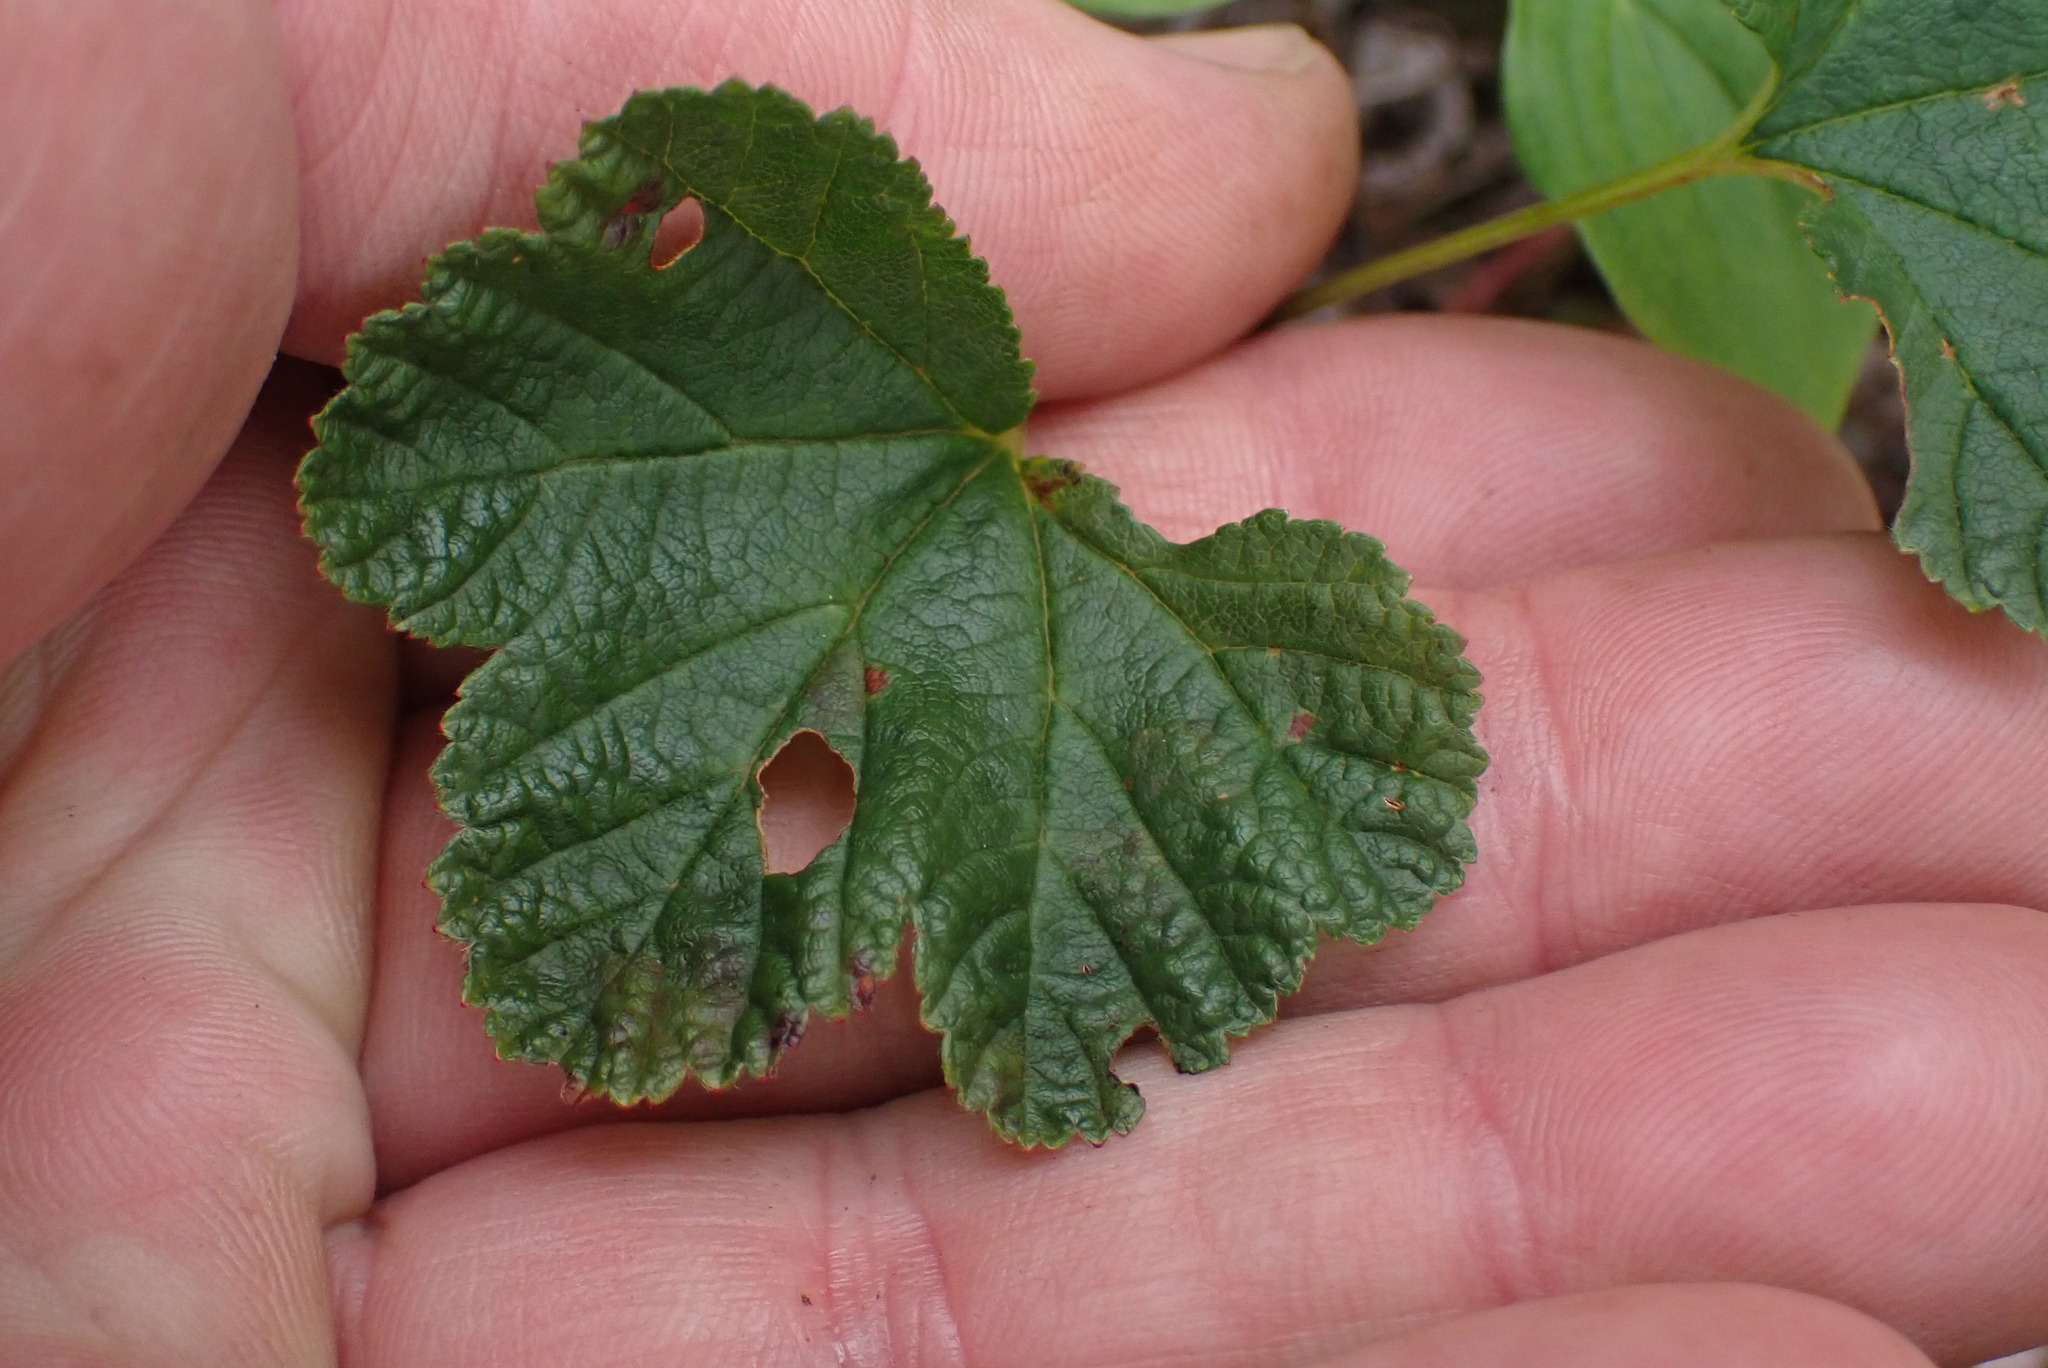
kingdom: Plantae
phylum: Tracheophyta
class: Magnoliopsida
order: Rosales
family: Rosaceae
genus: Rubus
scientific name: Rubus chamaemorus
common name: Cloudberry
